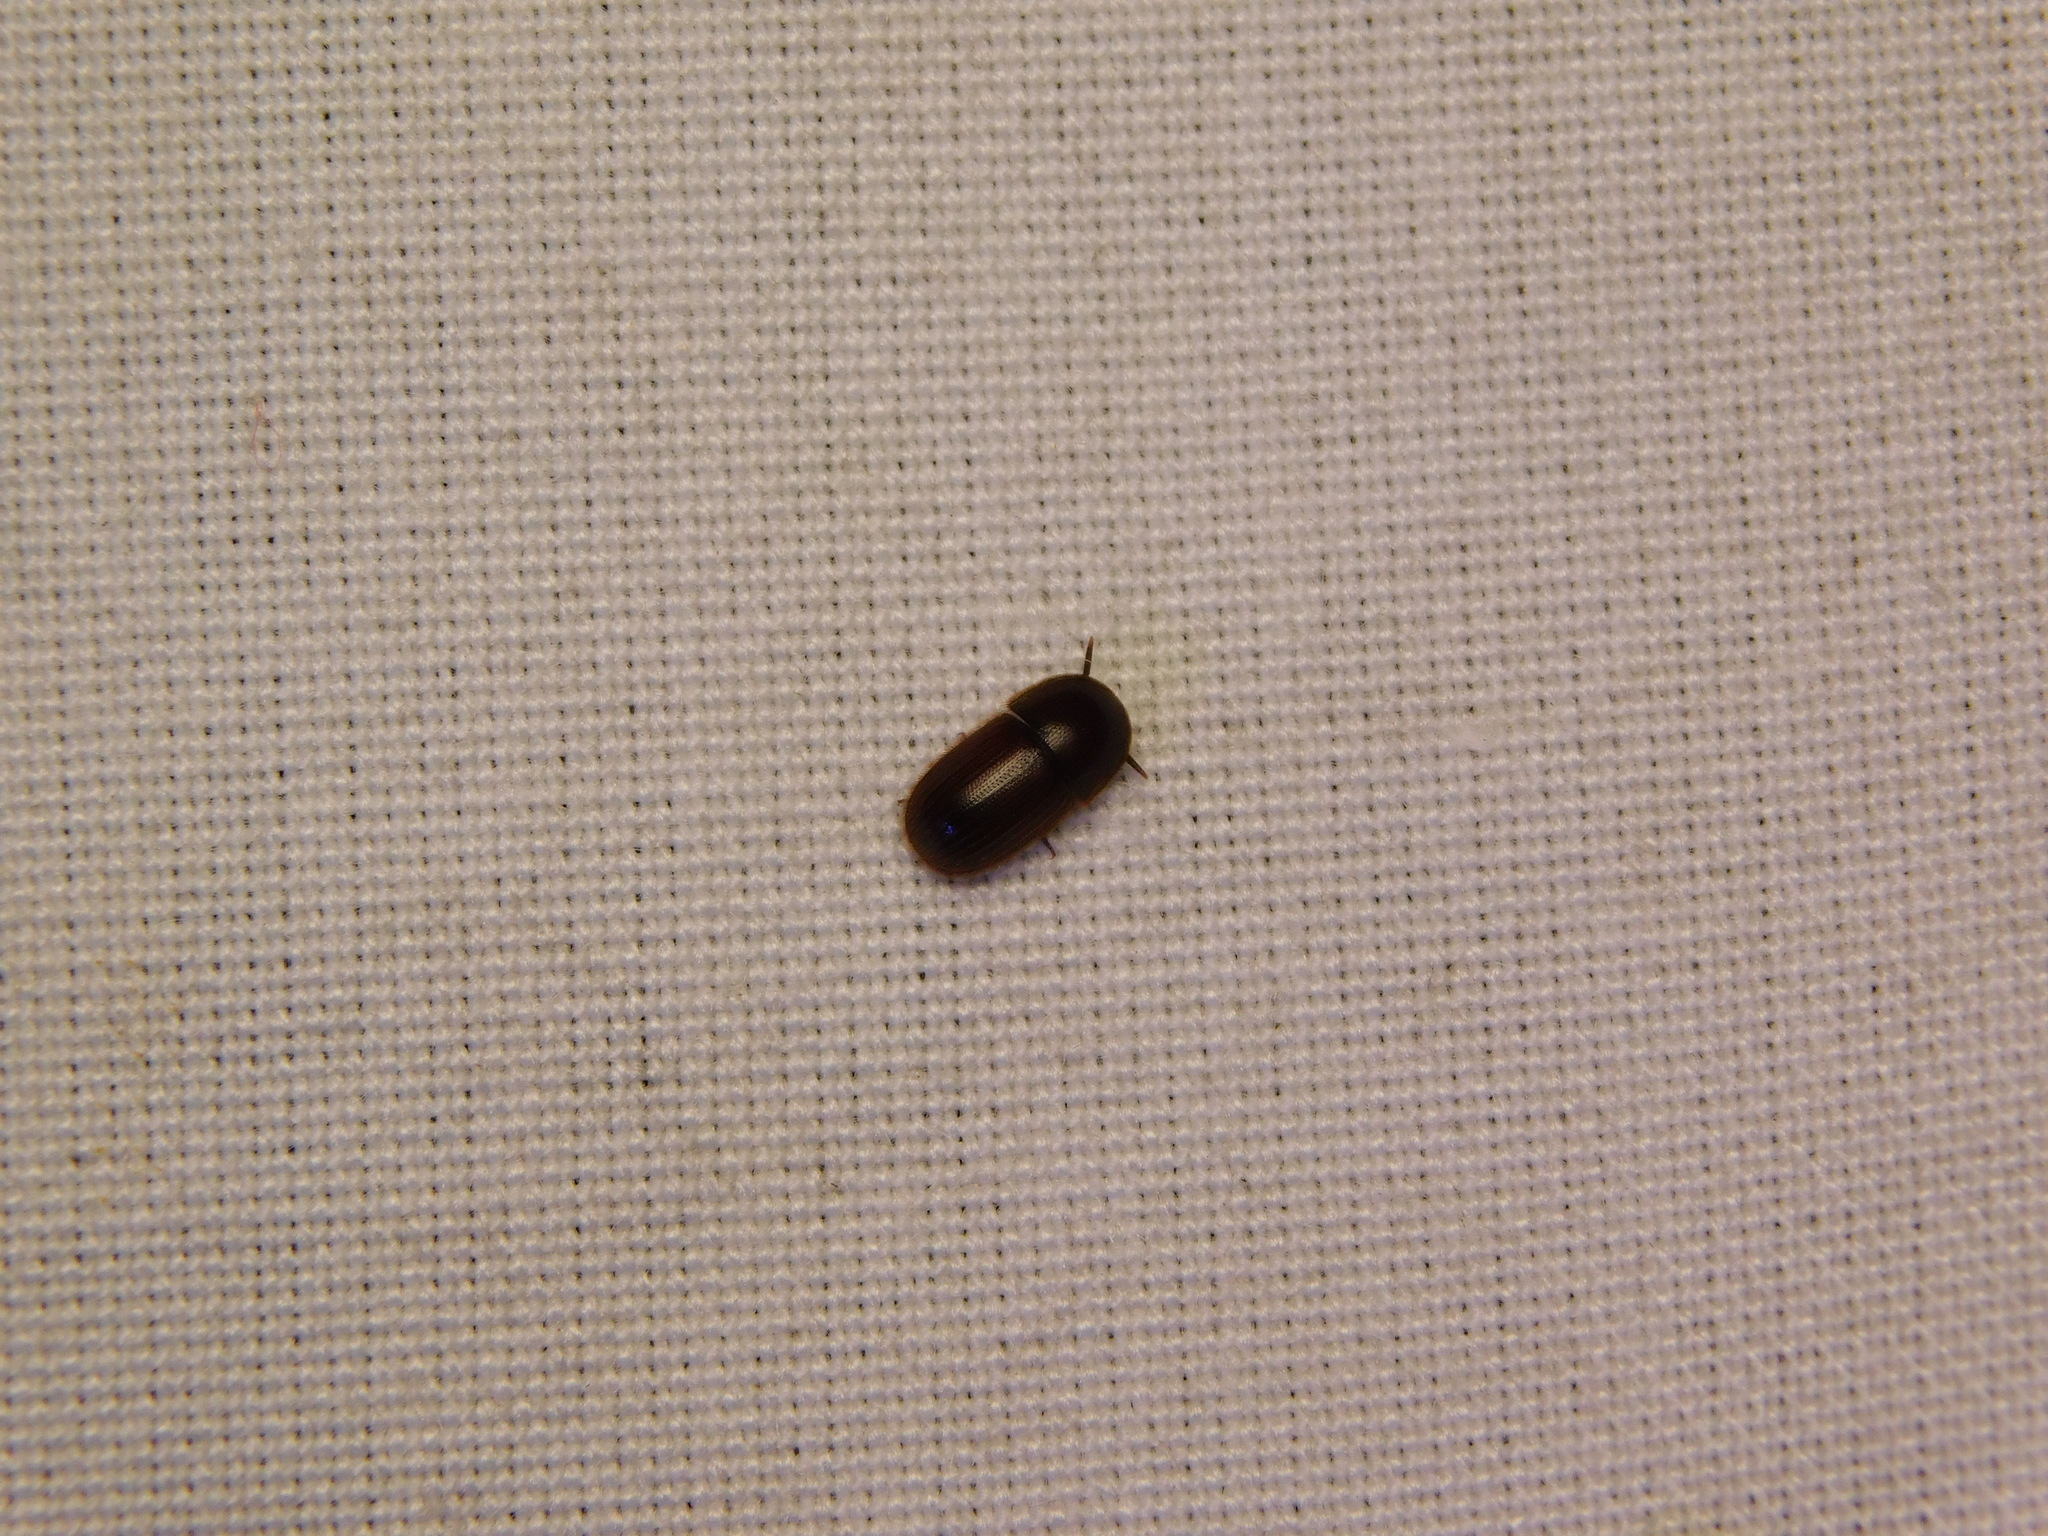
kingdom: Animalia
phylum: Arthropoda
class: Insecta
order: Coleoptera
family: Tenebrionidae
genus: Falsocossyphus
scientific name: Falsocossyphus
